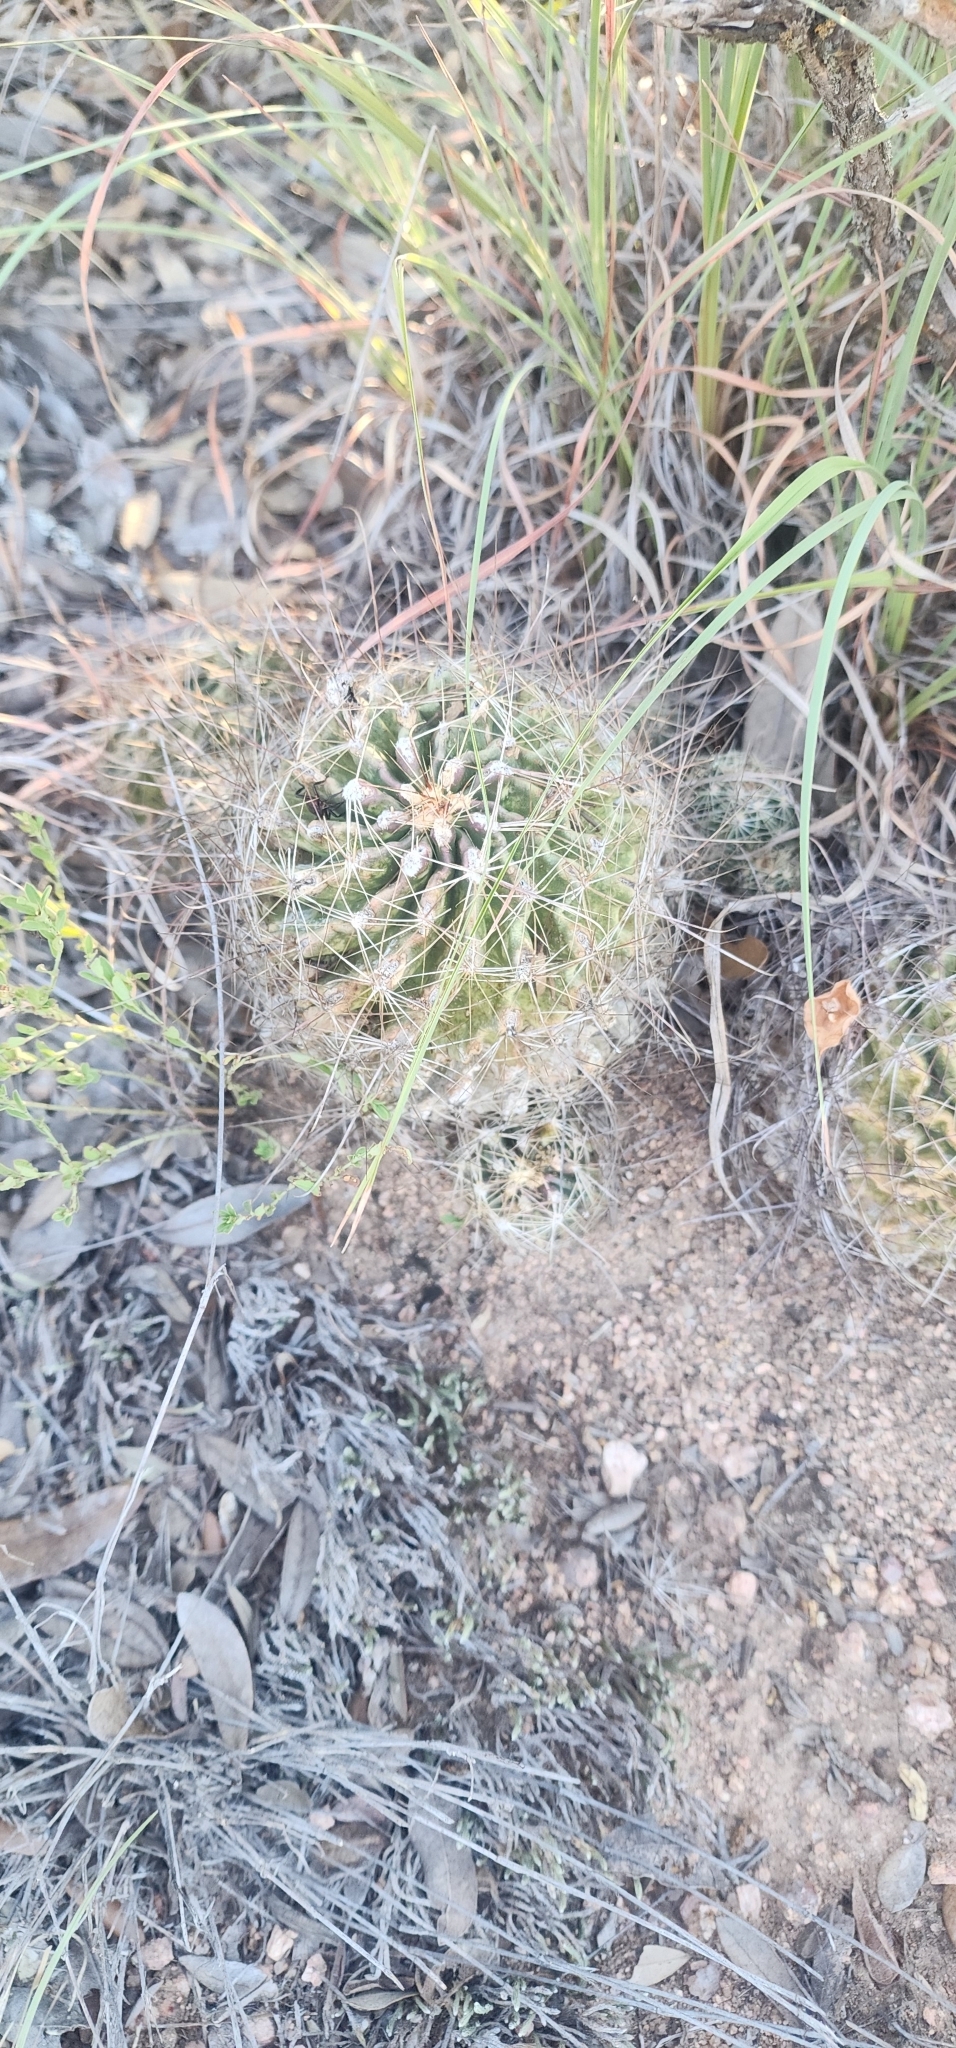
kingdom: Plantae
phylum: Tracheophyta
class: Magnoliopsida
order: Caryophyllales
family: Cactaceae
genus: Thelocactus
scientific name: Thelocactus setispinus
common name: Miniature barrel cactus
